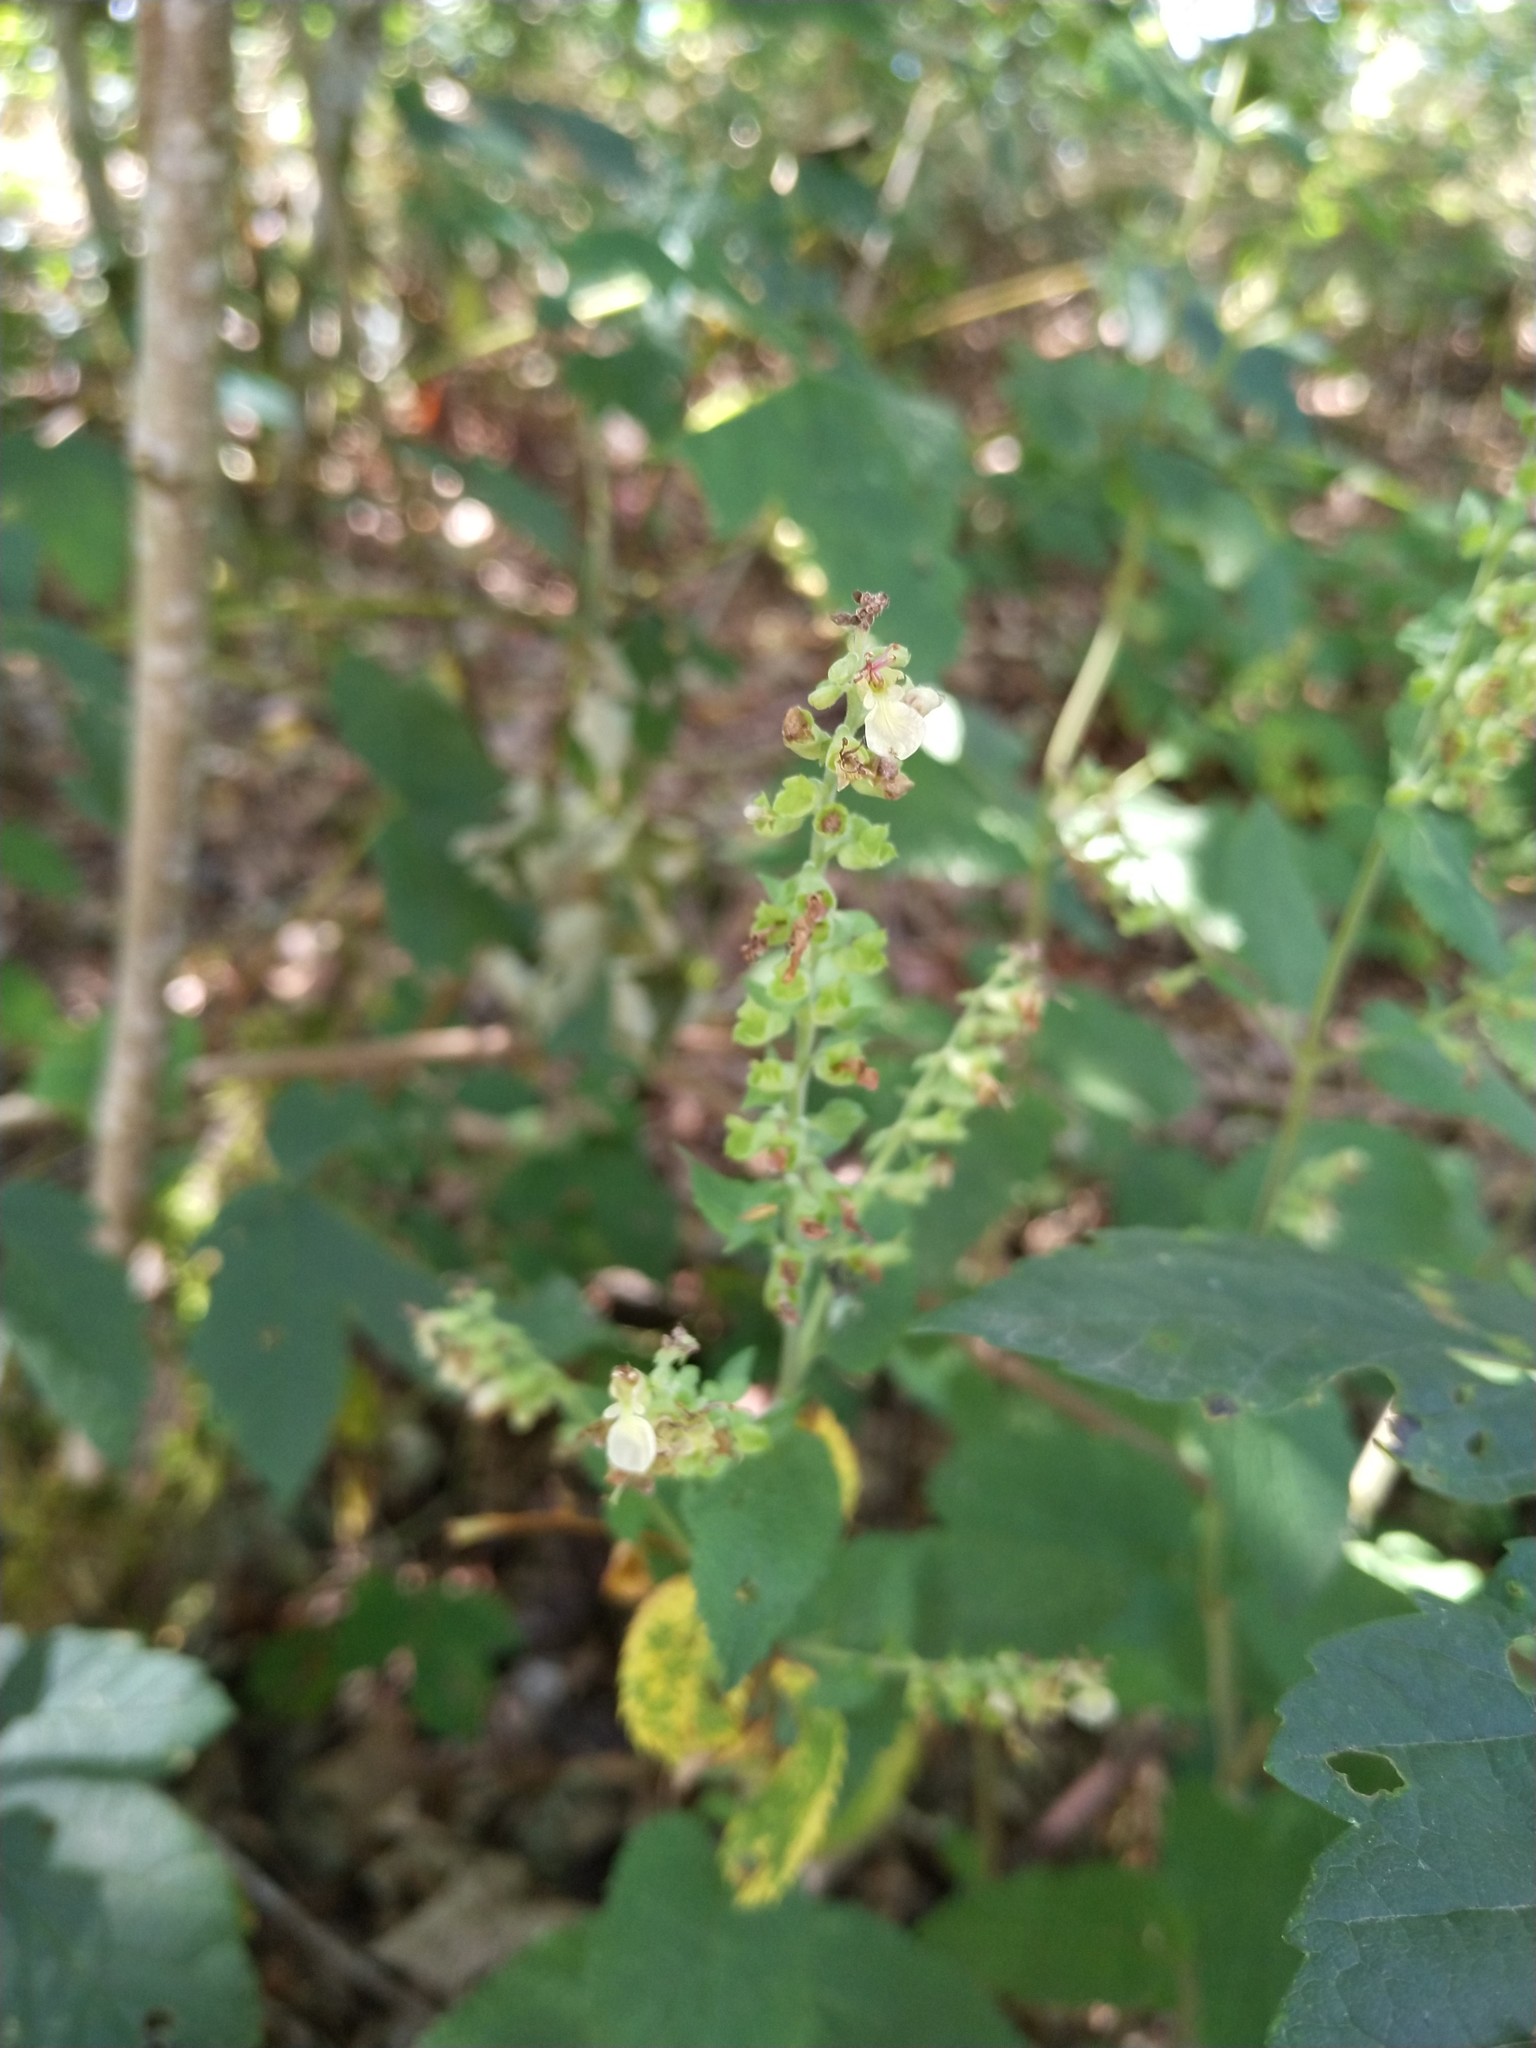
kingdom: Plantae
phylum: Tracheophyta
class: Magnoliopsida
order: Lamiales
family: Lamiaceae
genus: Teucrium
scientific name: Teucrium scorodonia
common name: Woodland germander
